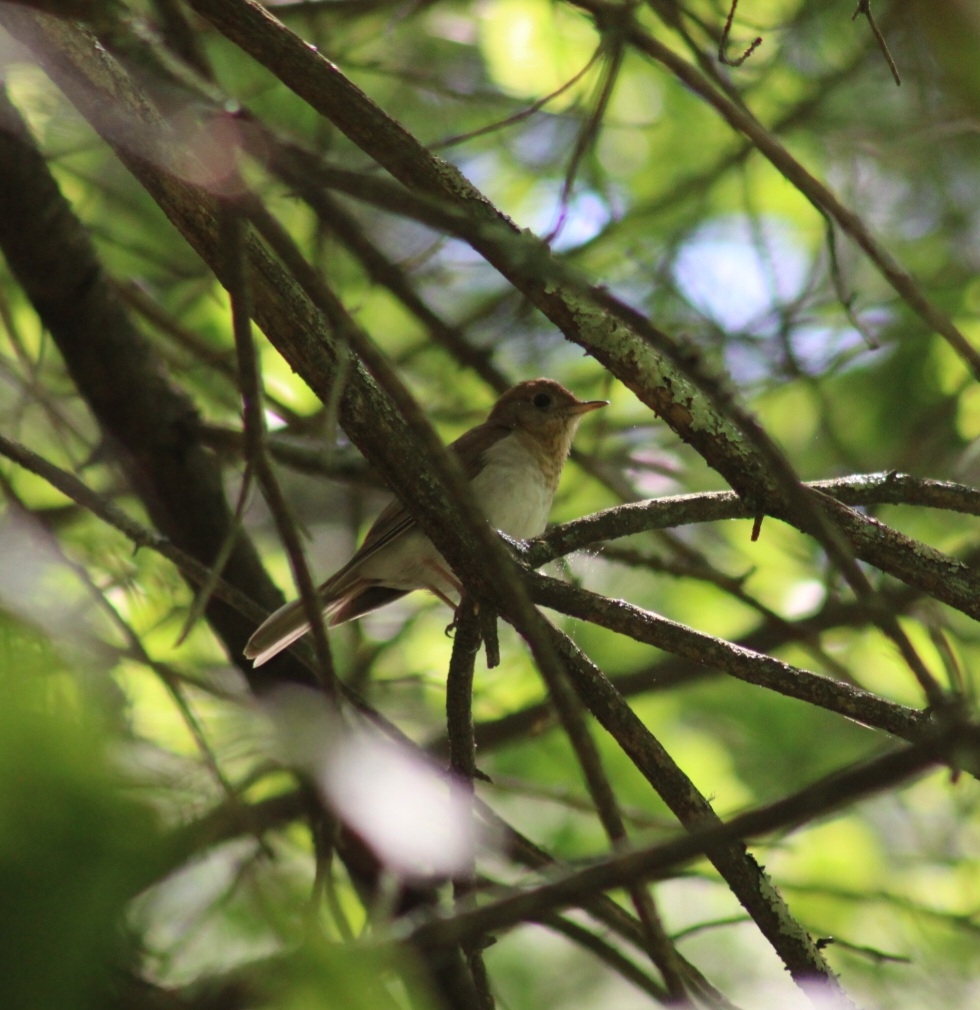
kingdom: Animalia
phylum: Chordata
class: Aves
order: Passeriformes
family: Turdidae
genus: Catharus
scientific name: Catharus fuscescens
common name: Veery
